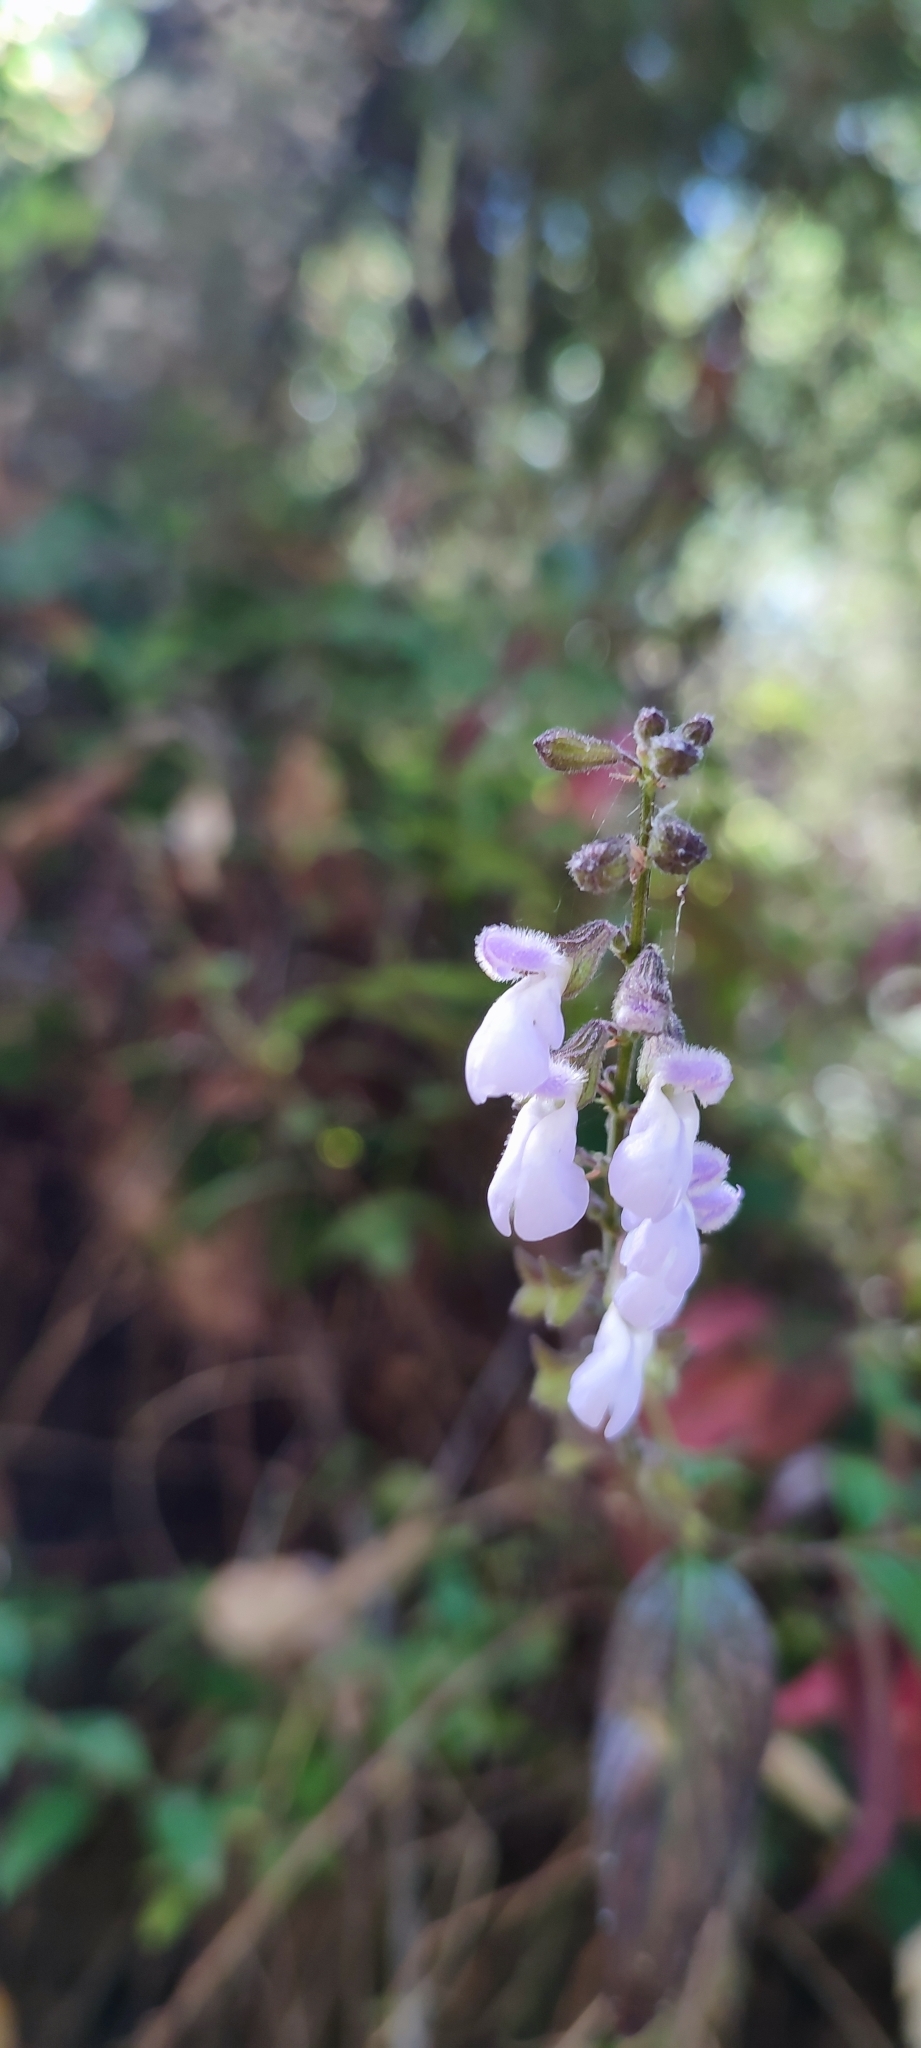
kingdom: Plantae
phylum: Tracheophyta
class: Magnoliopsida
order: Lamiales
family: Lamiaceae
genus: Salvia
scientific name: Salvia quercetorum
